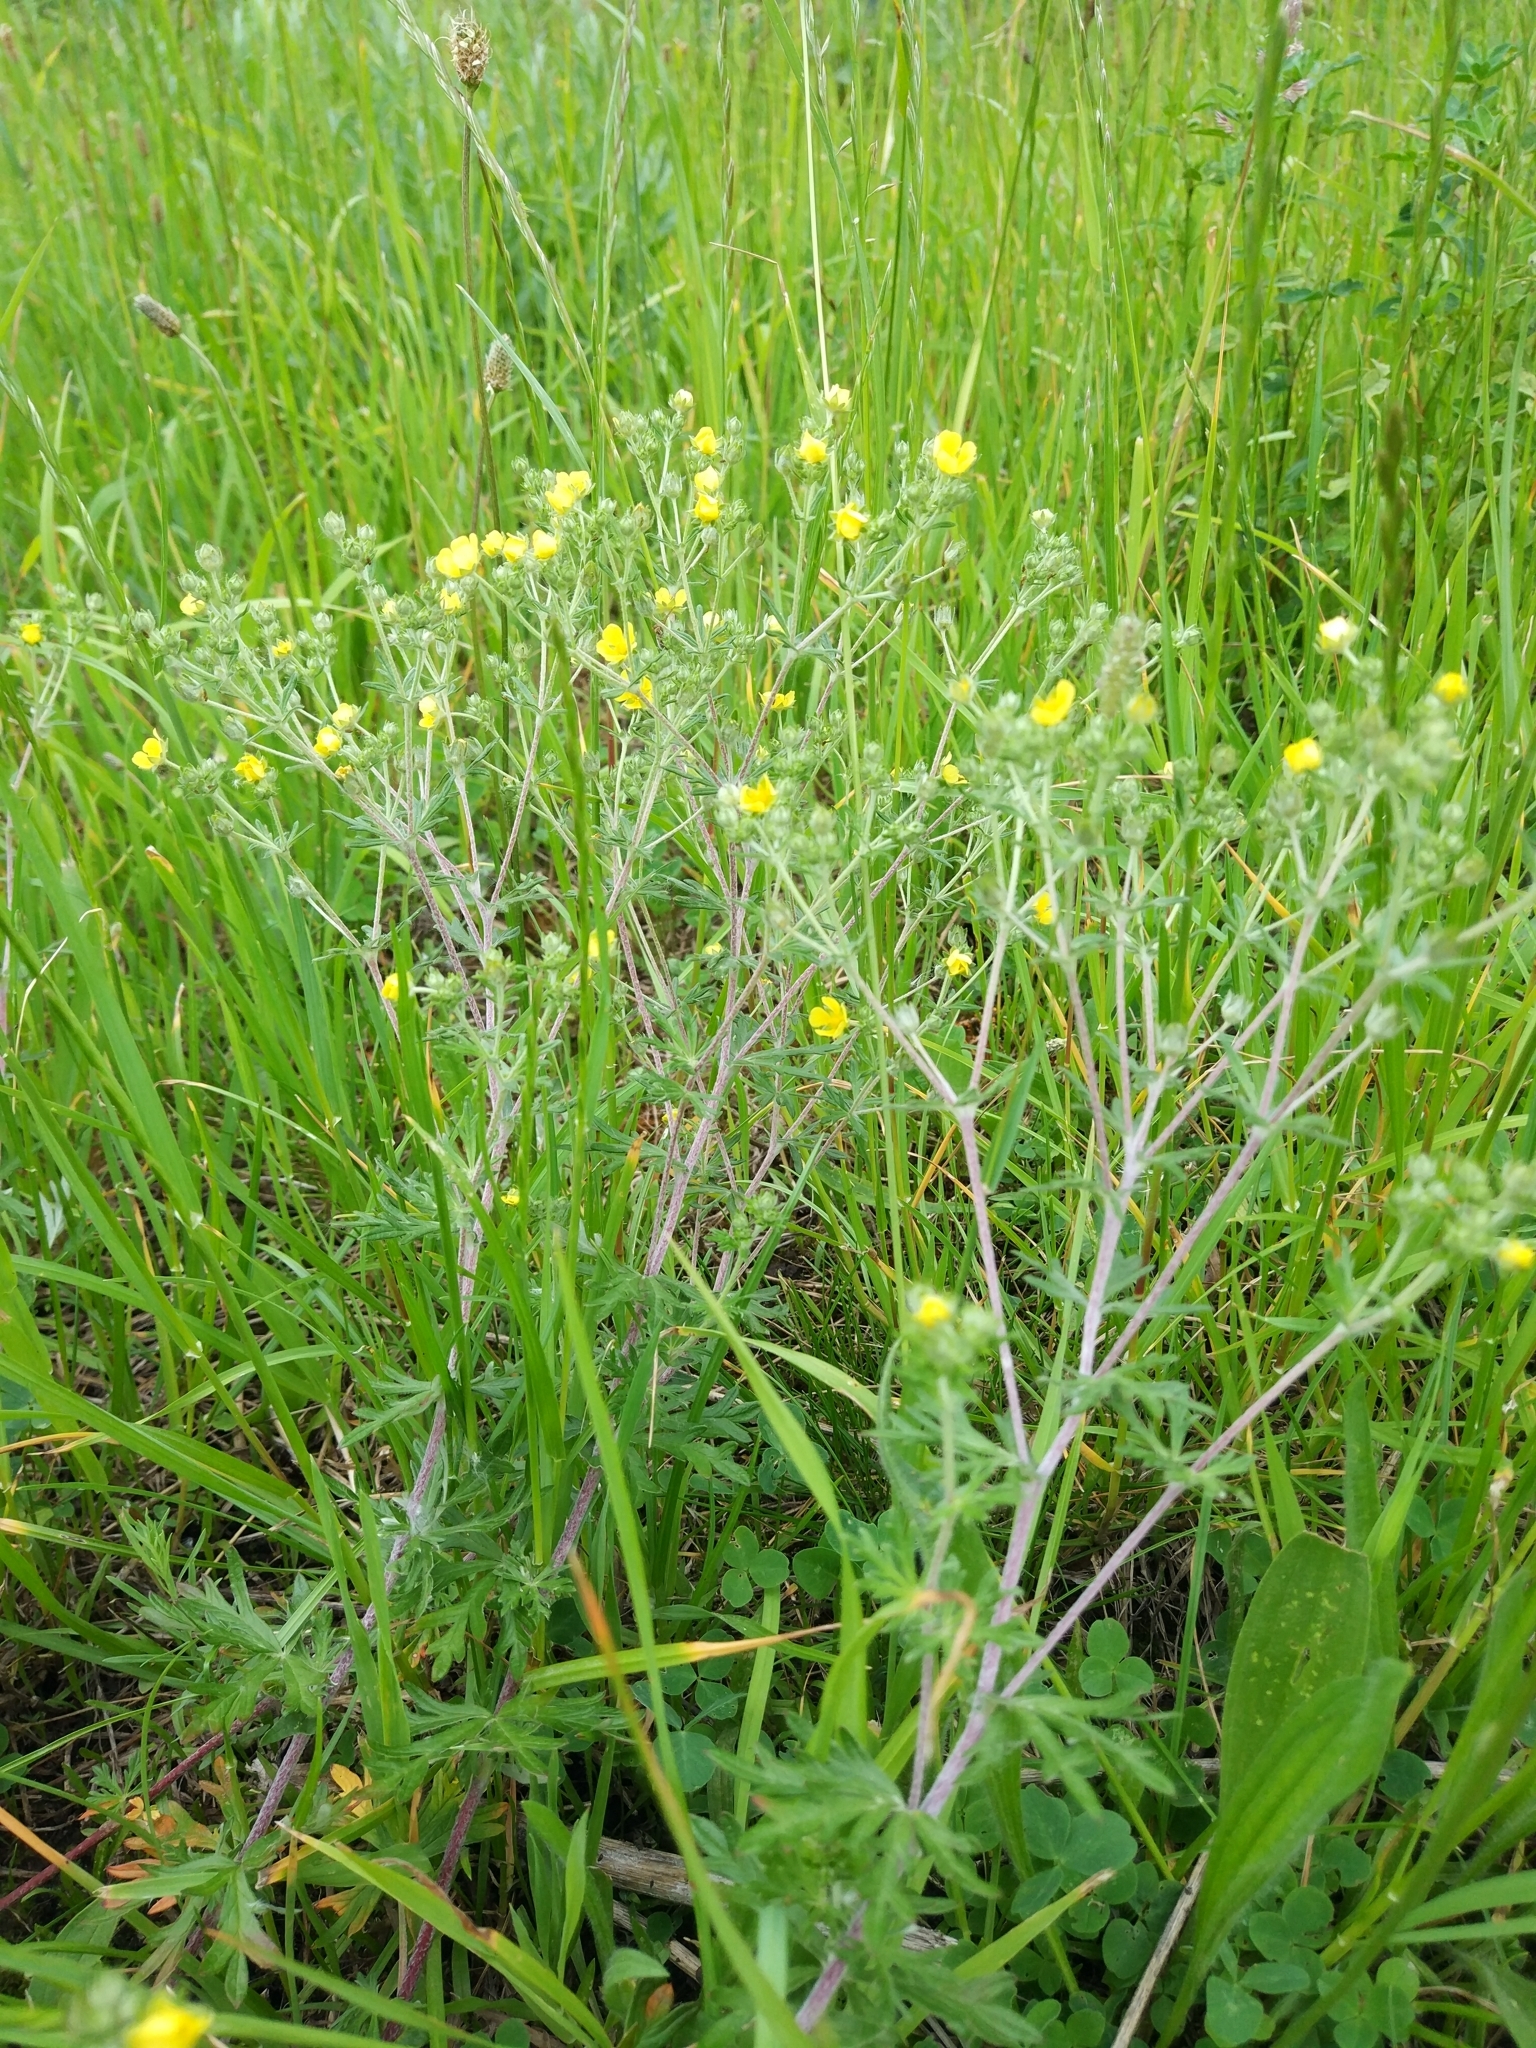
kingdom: Plantae
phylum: Tracheophyta
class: Magnoliopsida
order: Rosales
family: Rosaceae
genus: Potentilla
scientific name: Potentilla argentea
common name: Hoary cinquefoil
